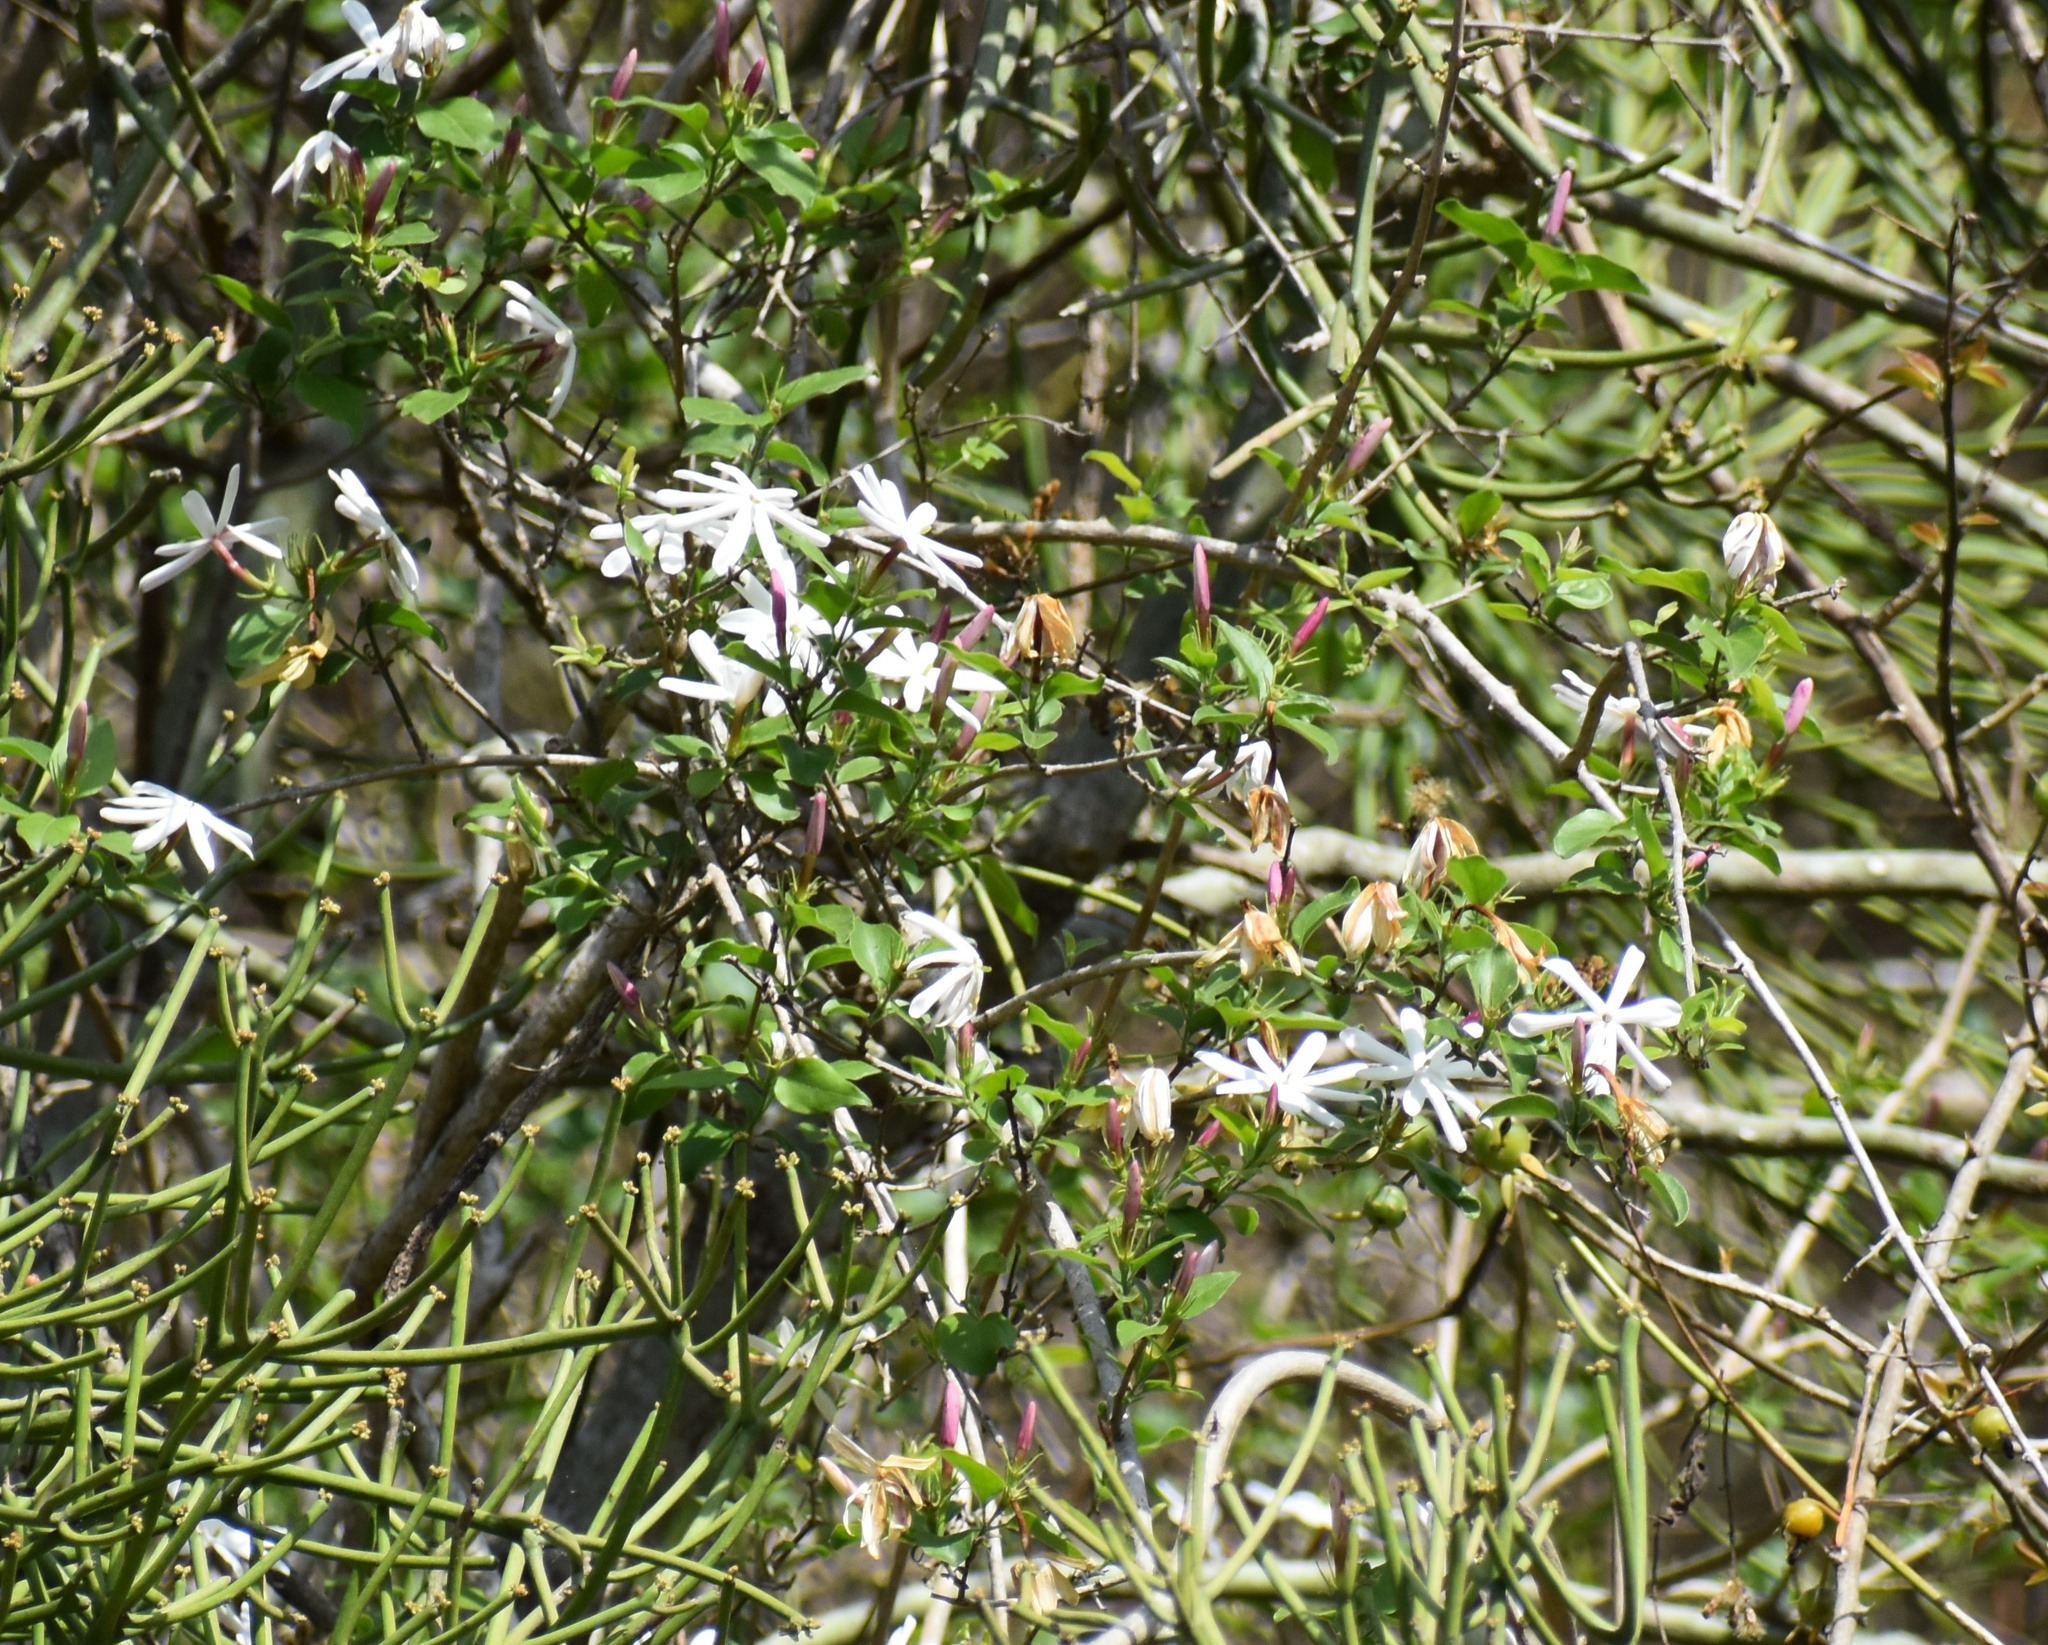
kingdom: Plantae
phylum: Tracheophyta
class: Magnoliopsida
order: Lamiales
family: Oleaceae
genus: Jasminum
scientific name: Jasminum multipartitum
